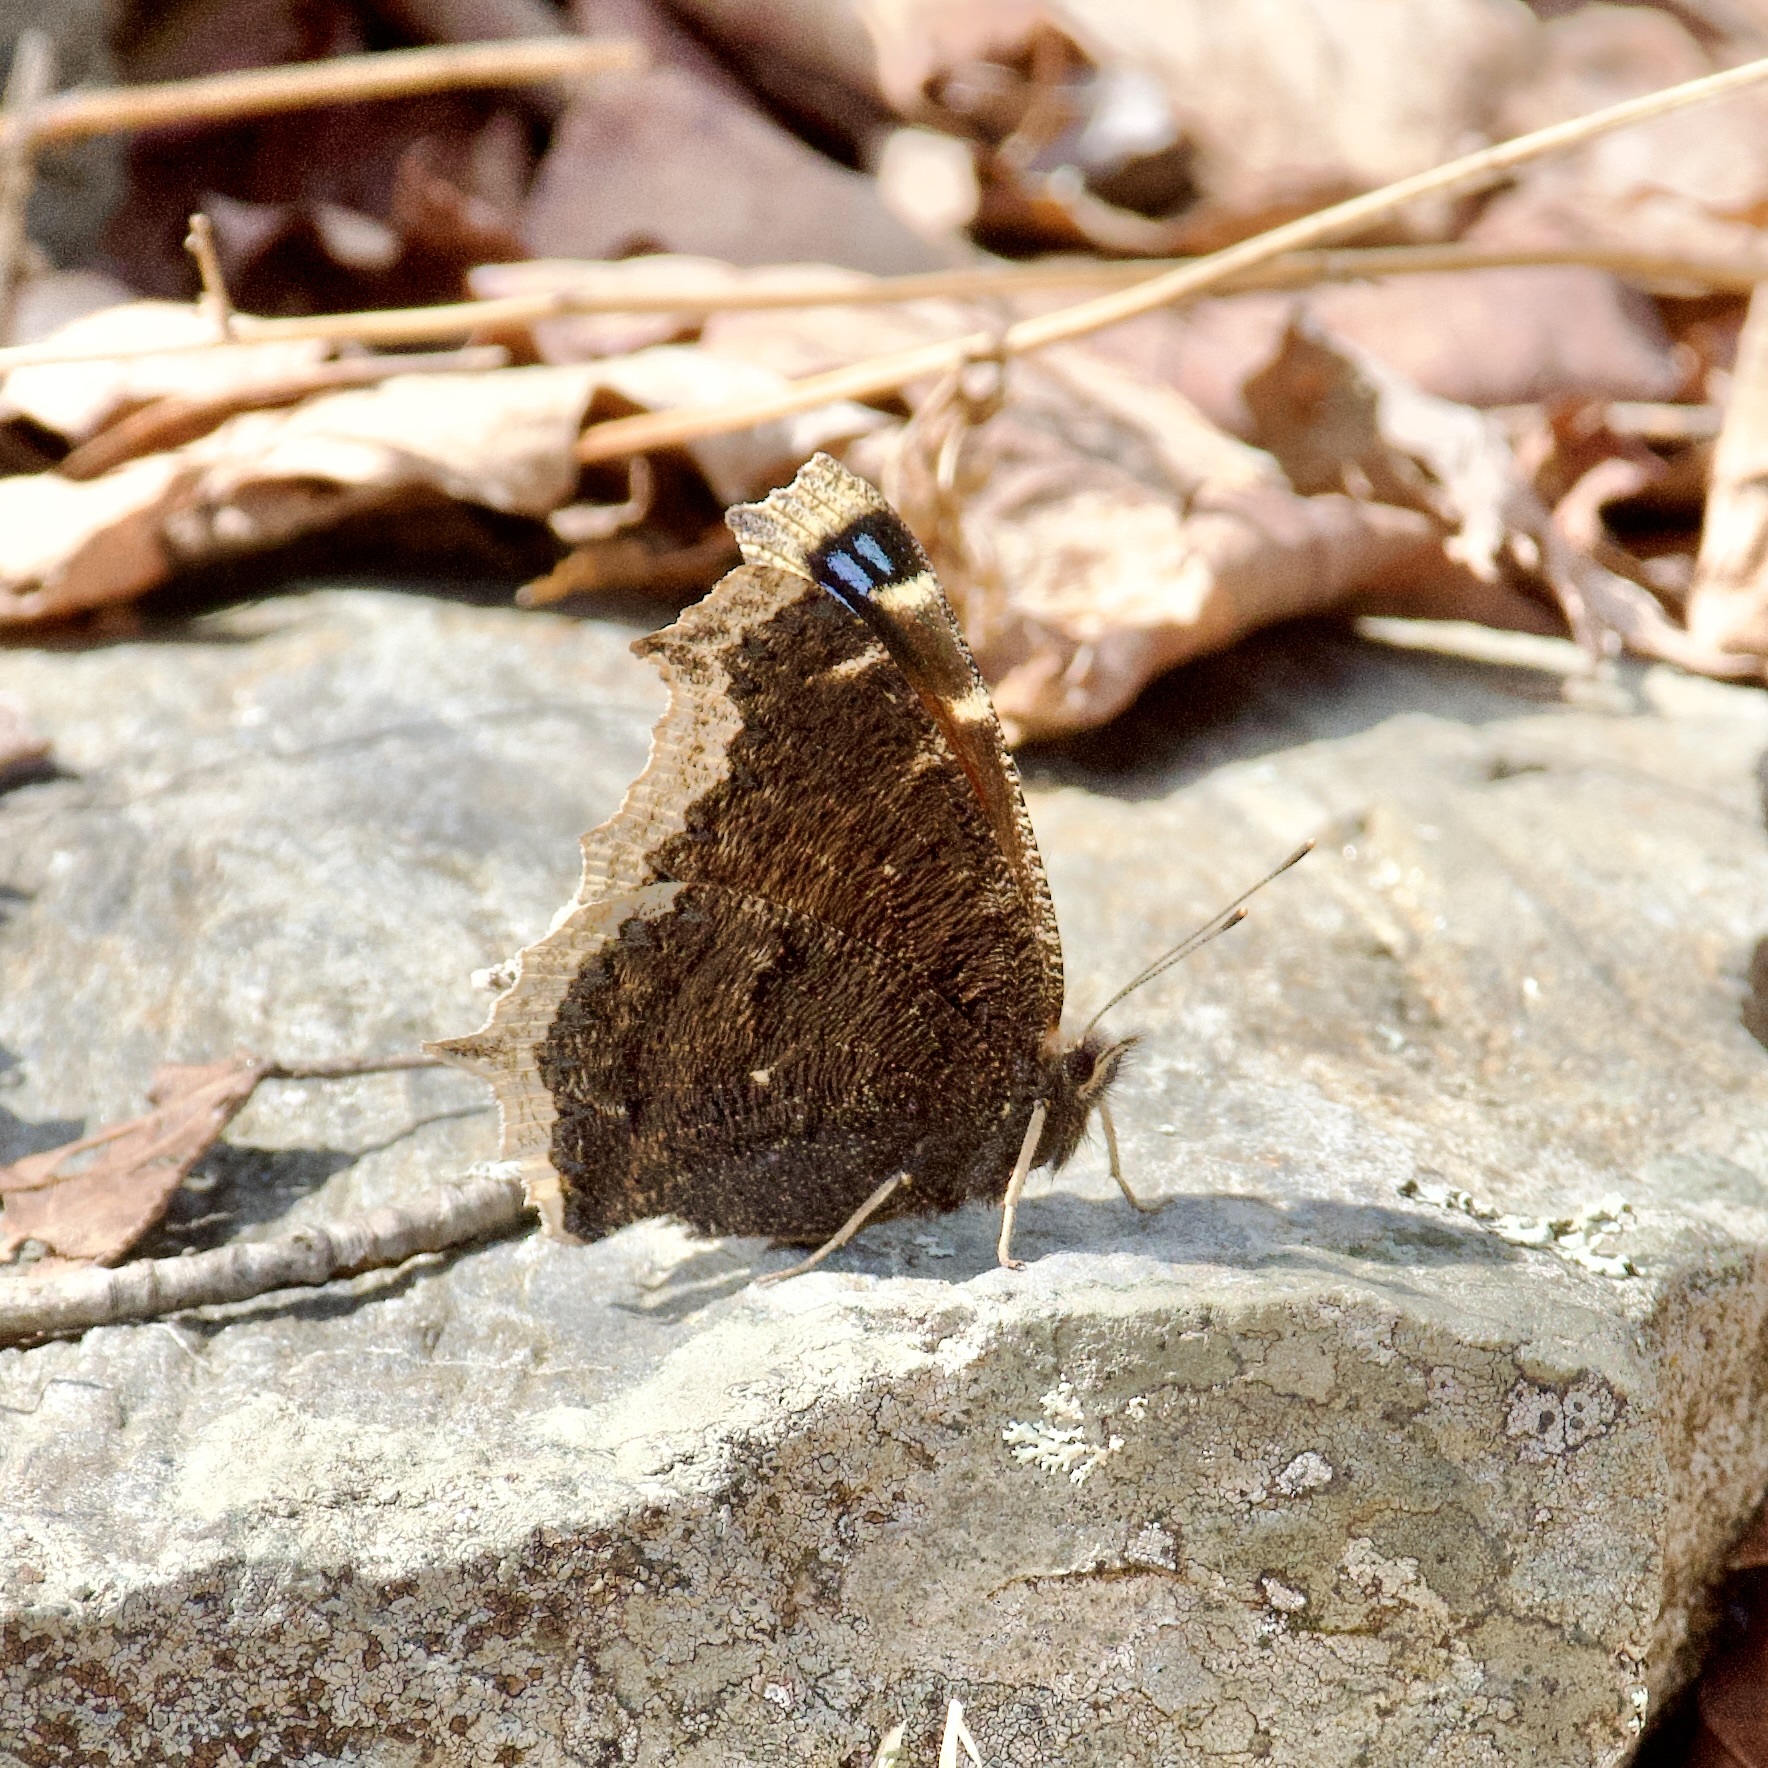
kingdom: Animalia
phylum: Arthropoda
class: Insecta
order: Lepidoptera
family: Nymphalidae
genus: Nymphalis
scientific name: Nymphalis antiopa
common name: Camberwell beauty
